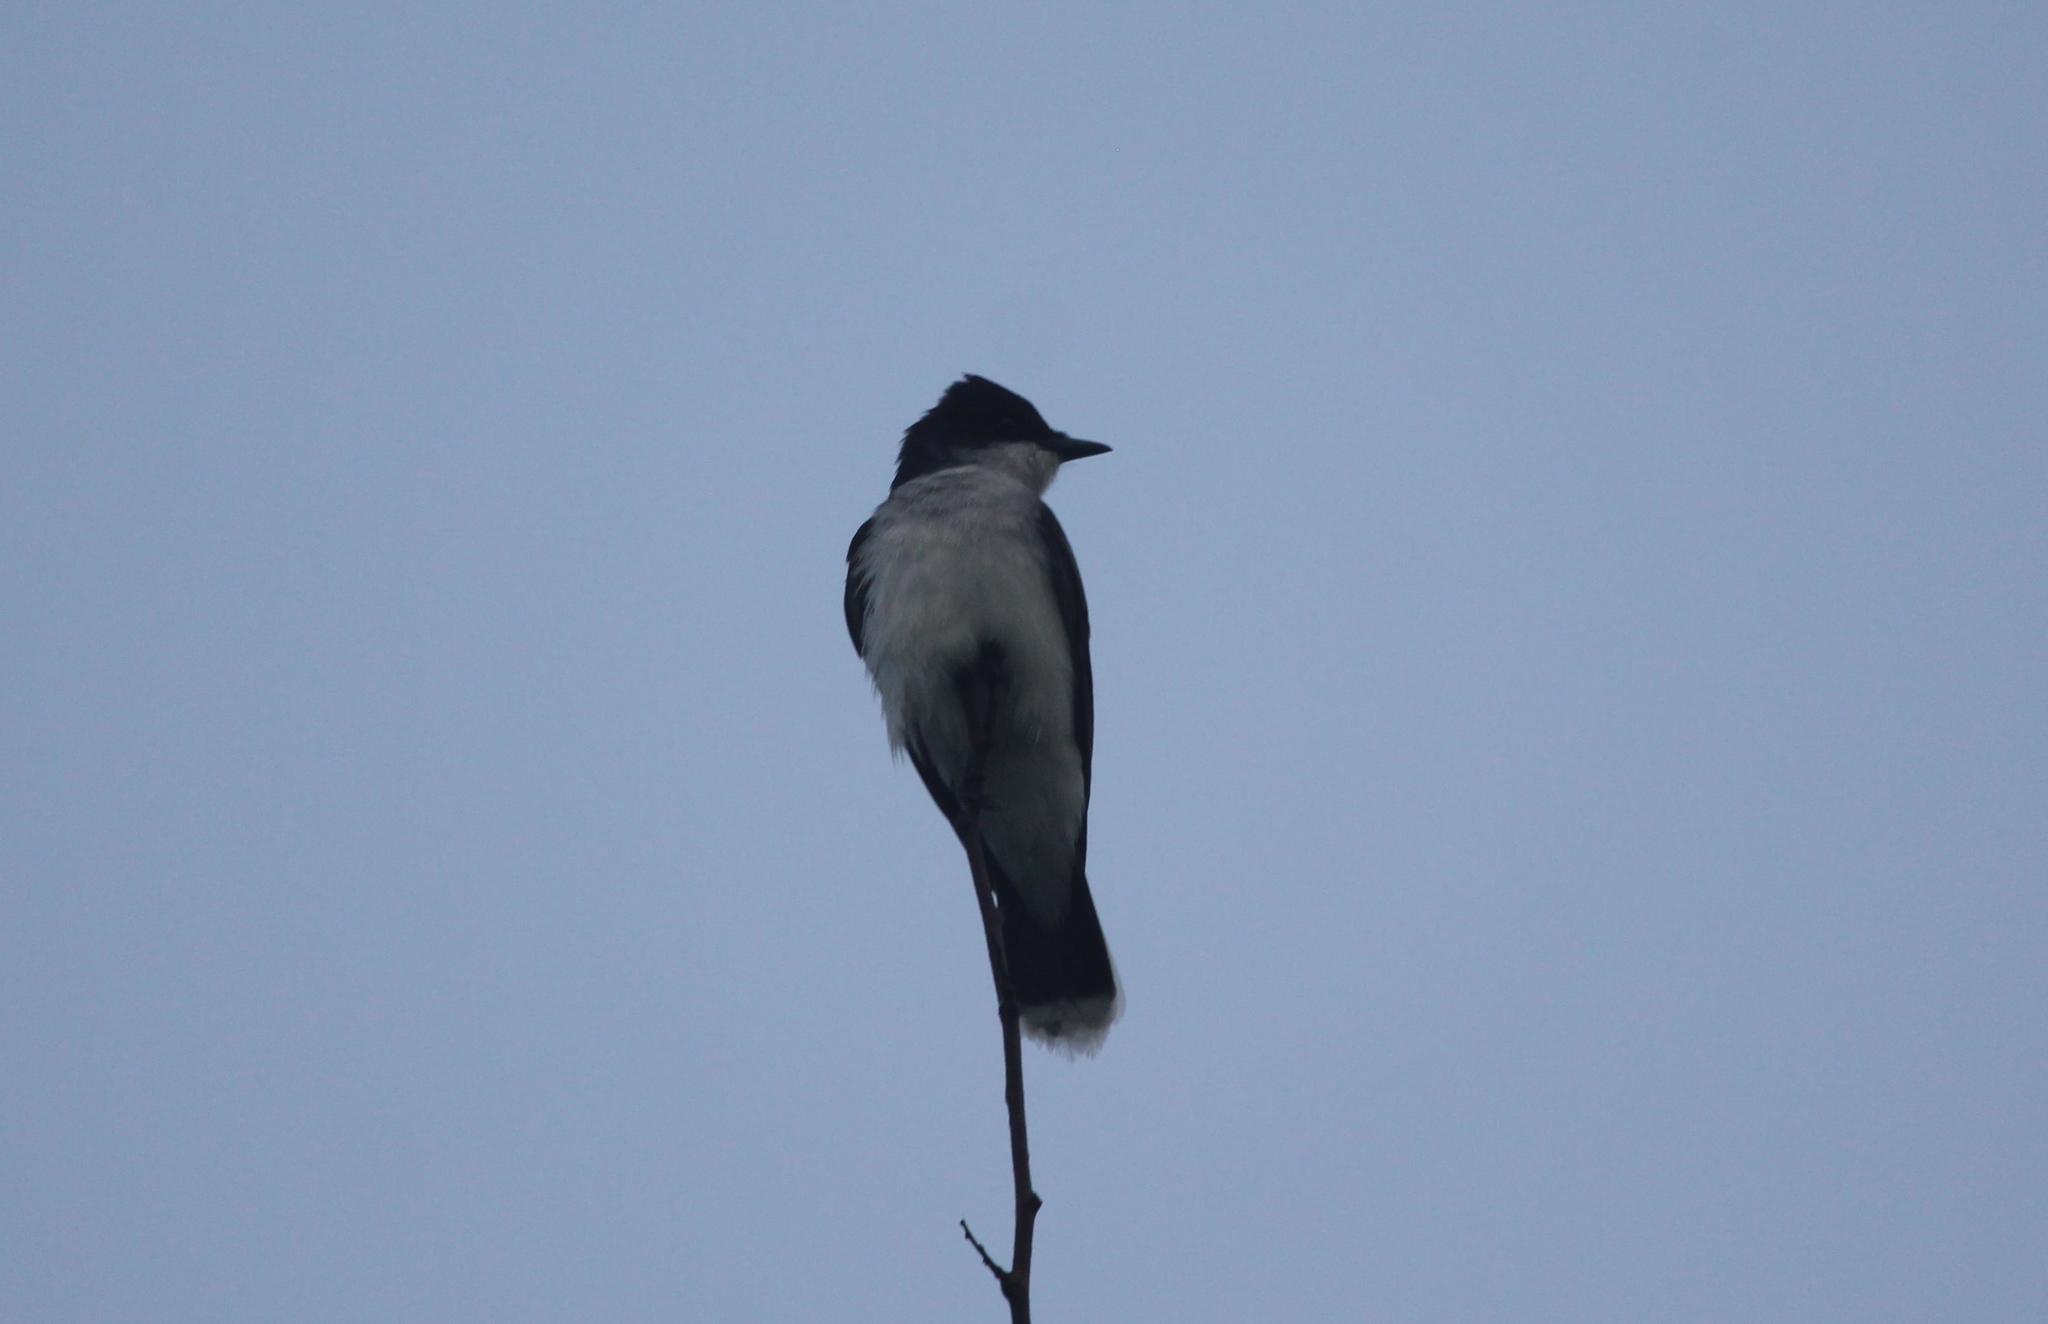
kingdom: Animalia
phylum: Chordata
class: Aves
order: Passeriformes
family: Tyrannidae
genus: Tyrannus
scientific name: Tyrannus tyrannus
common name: Eastern kingbird
